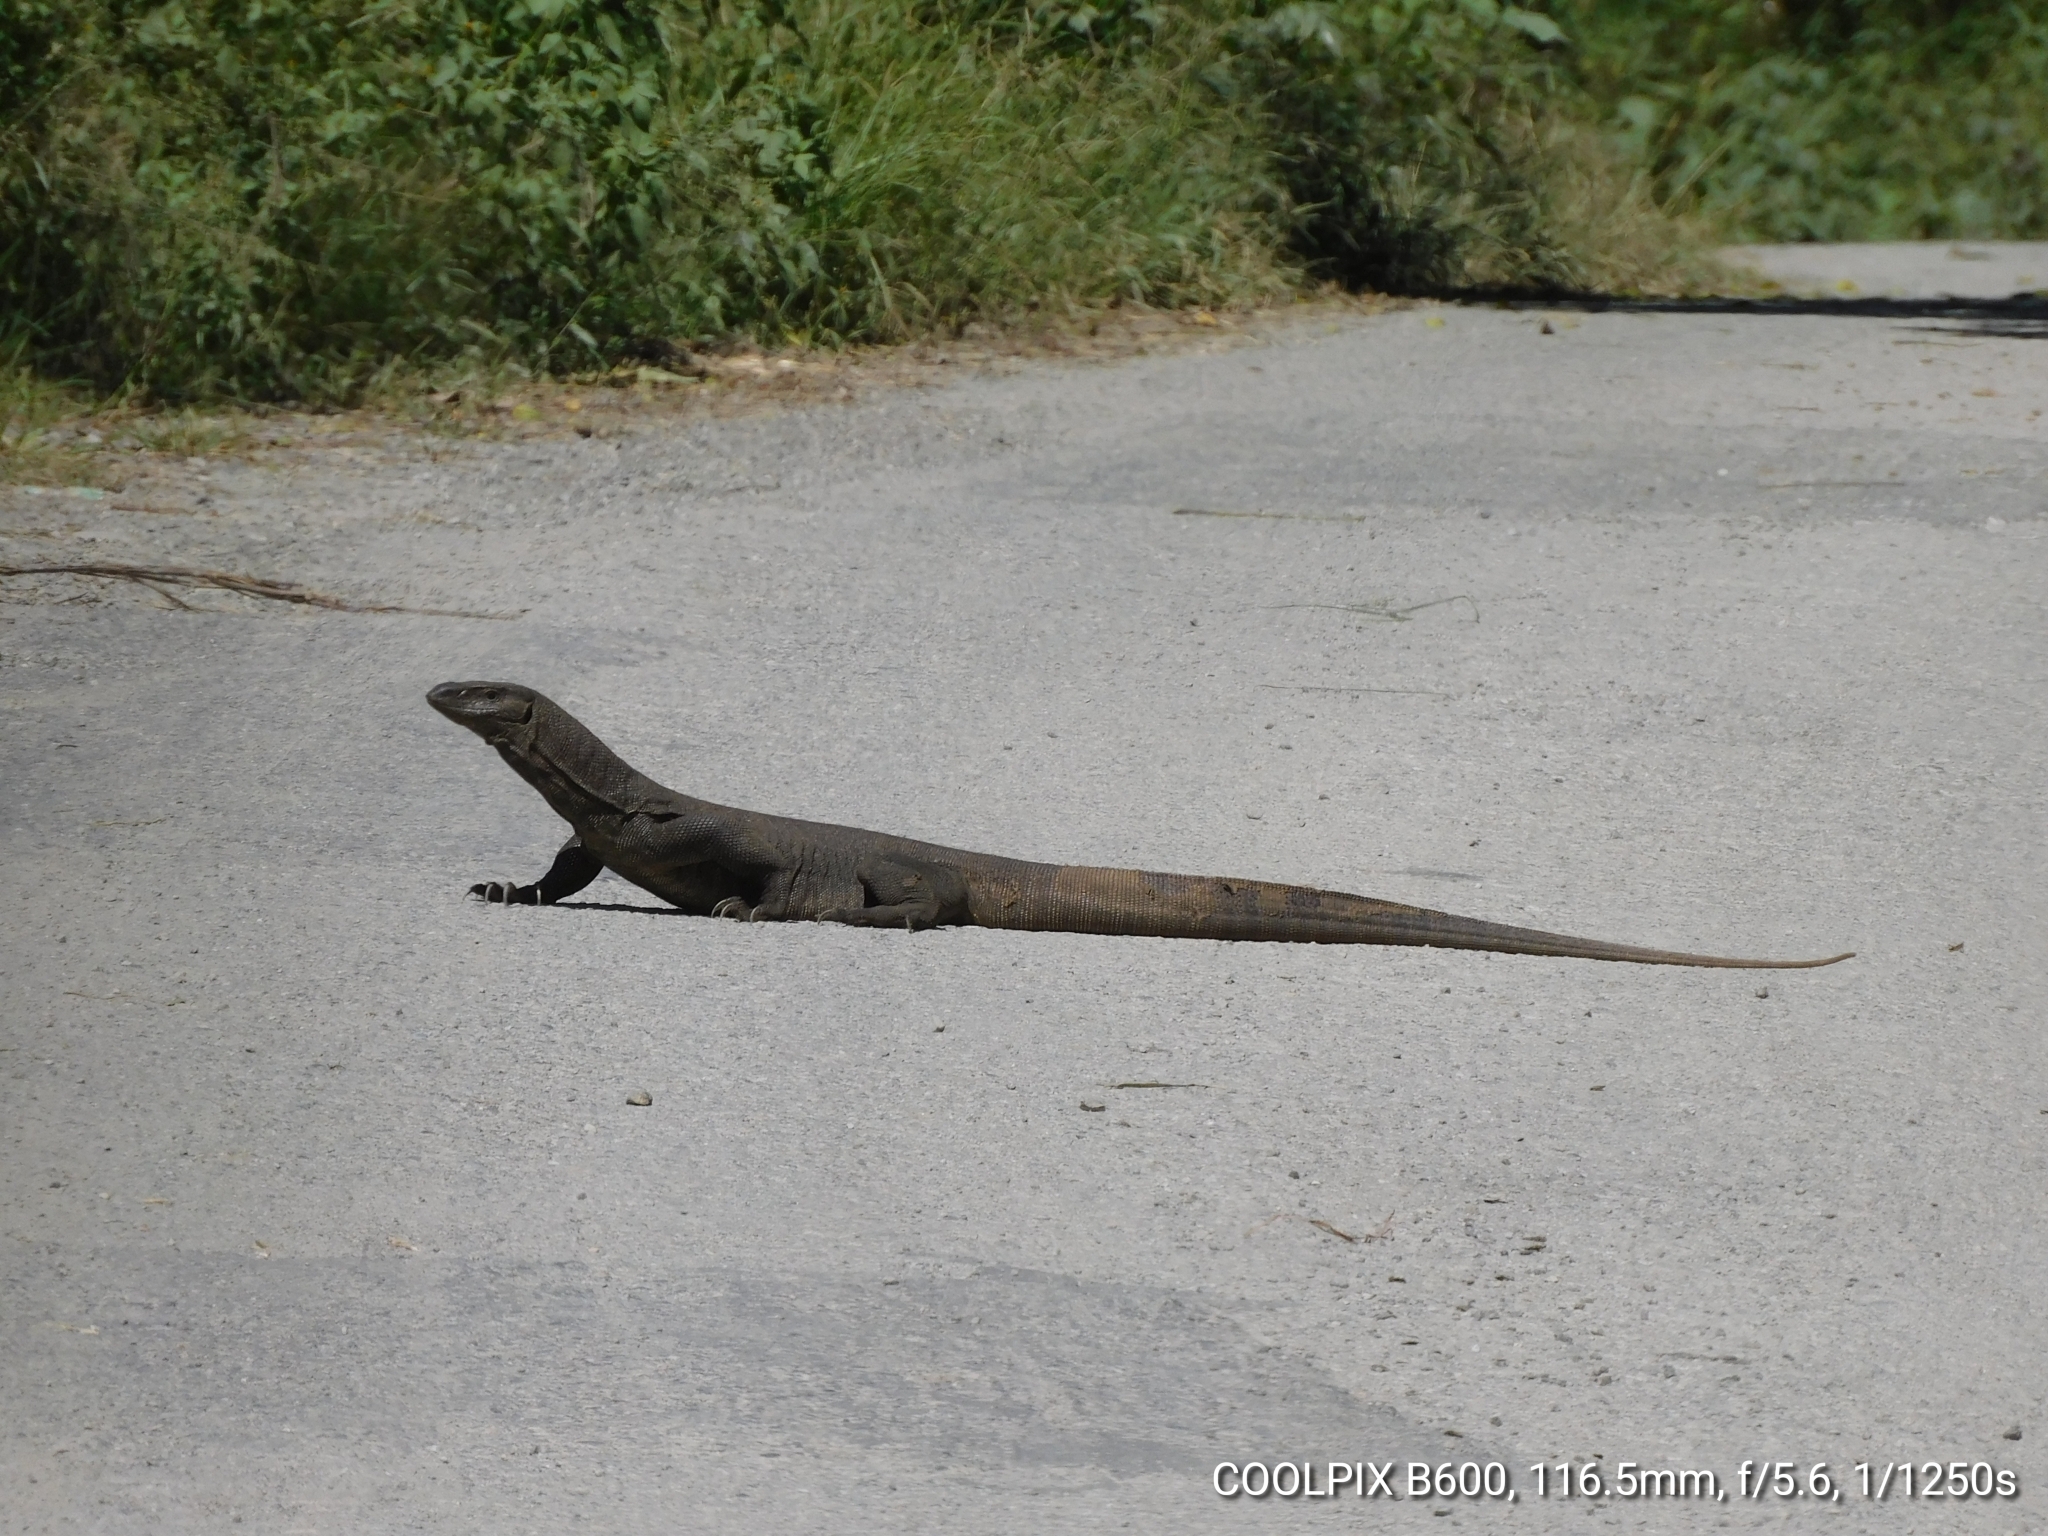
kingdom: Animalia
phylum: Chordata
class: Squamata
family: Varanidae
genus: Varanus
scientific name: Varanus bengalensis
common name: Bengal monitor
